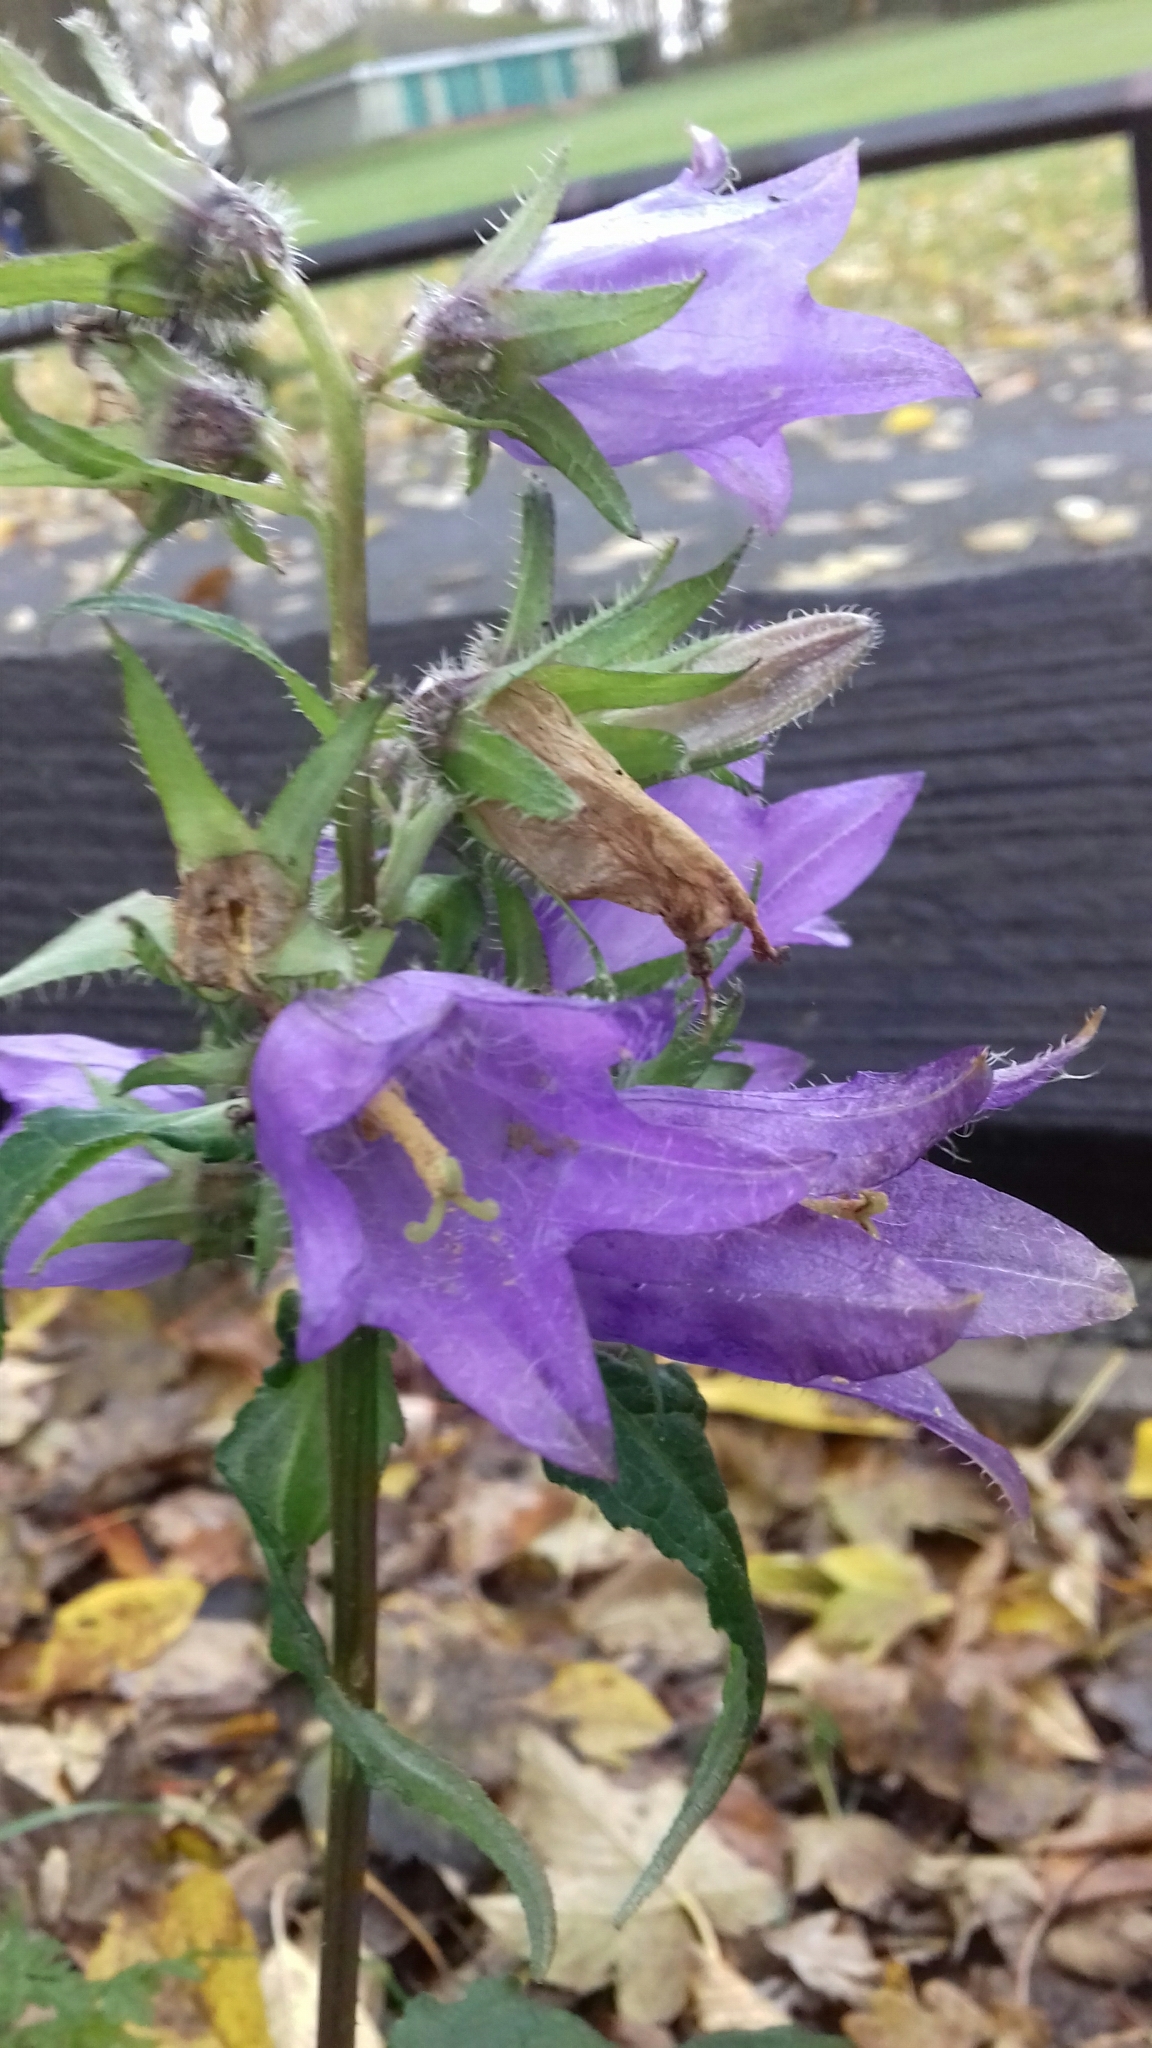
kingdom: Plantae
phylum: Tracheophyta
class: Magnoliopsida
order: Asterales
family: Campanulaceae
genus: Campanula
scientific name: Campanula trachelium
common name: Nettle-leaved bellflower
